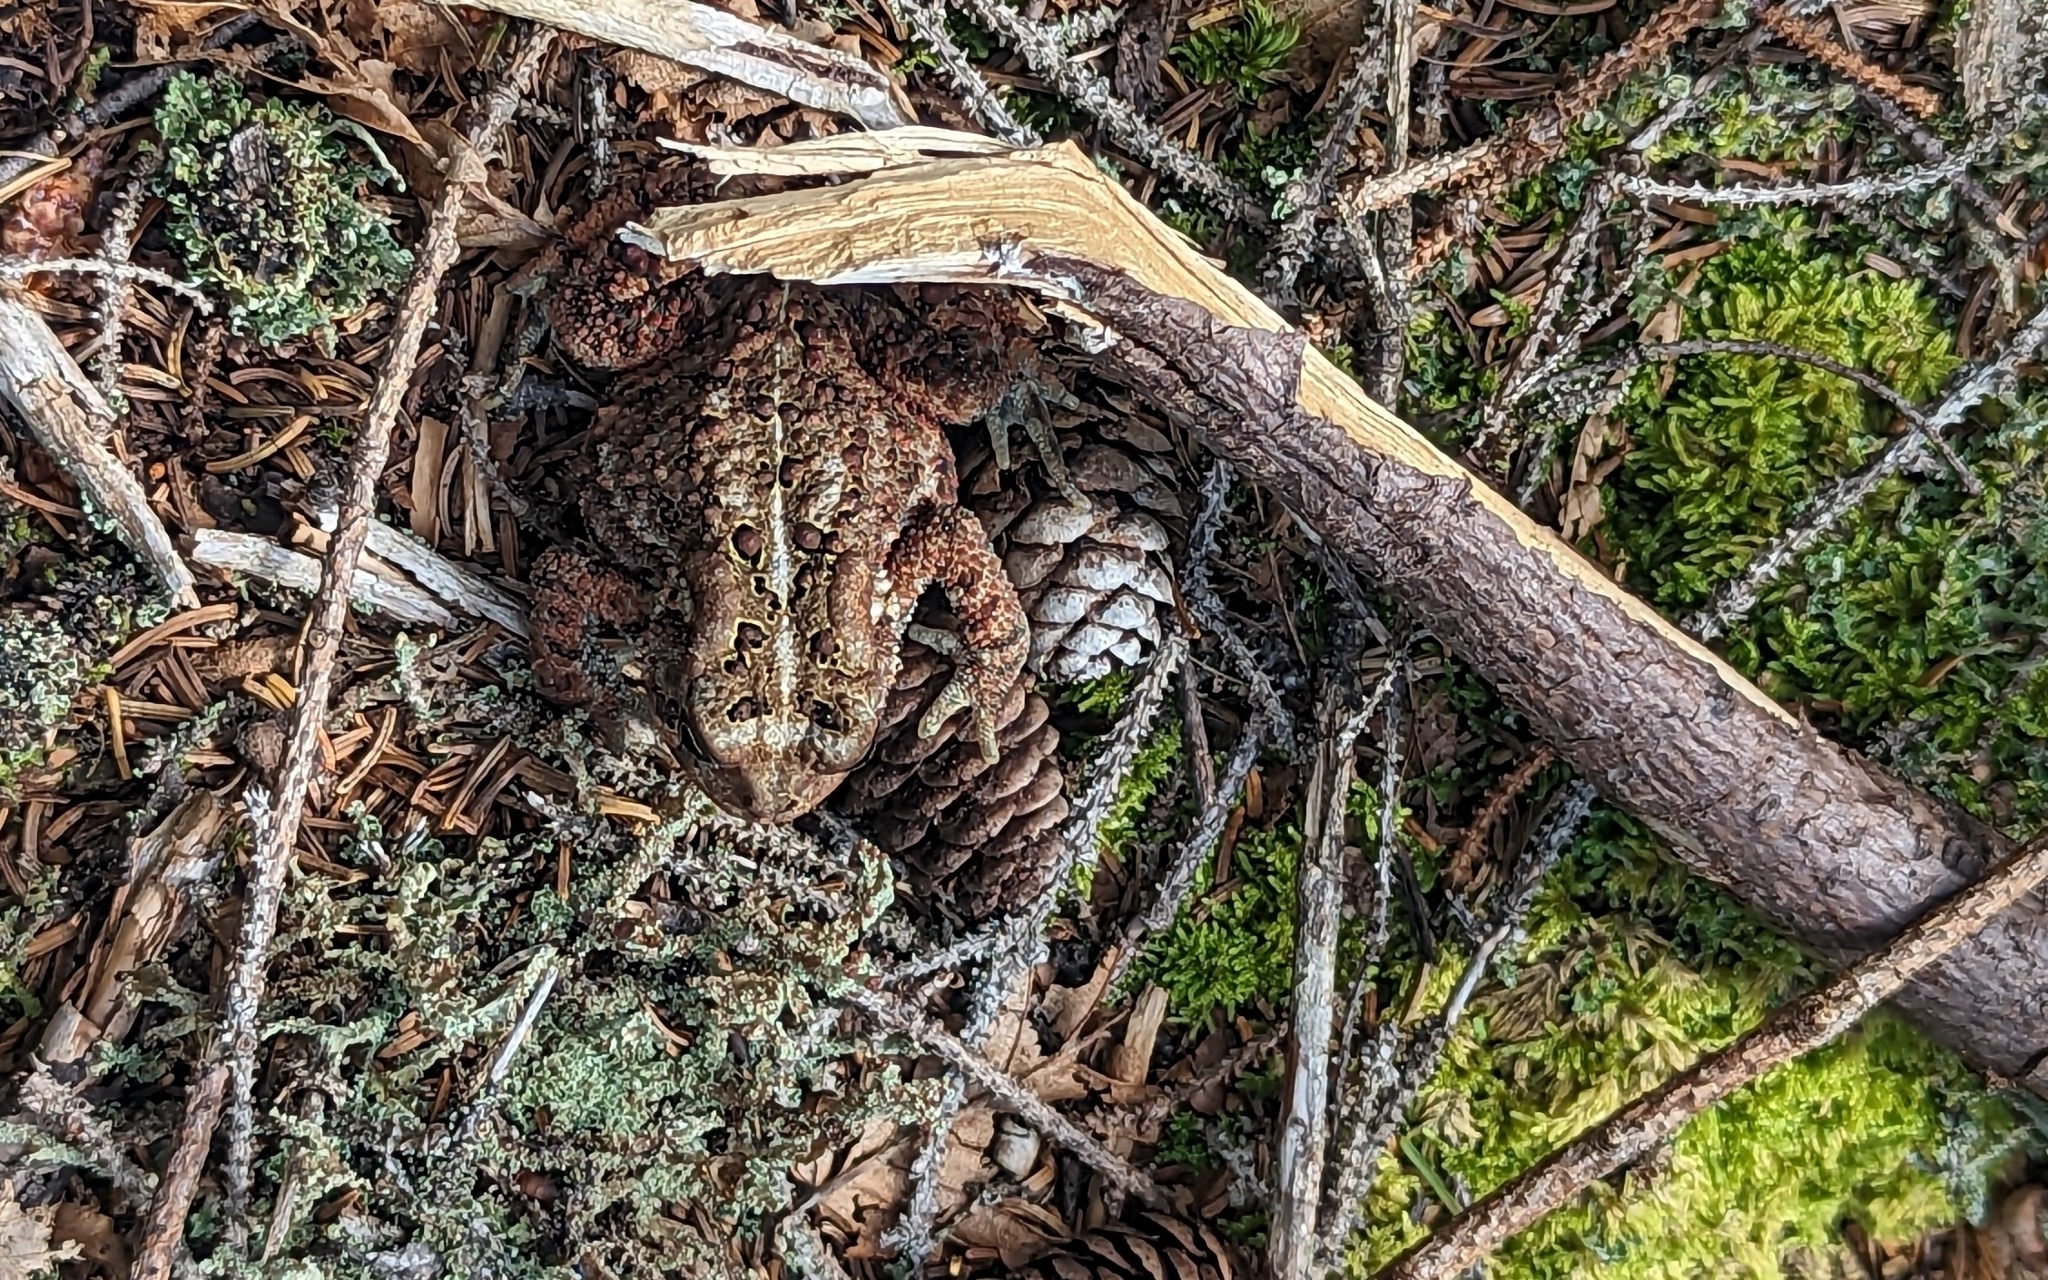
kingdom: Animalia
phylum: Chordata
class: Amphibia
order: Anura
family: Bufonidae
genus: Anaxyrus
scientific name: Anaxyrus americanus
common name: American toad
